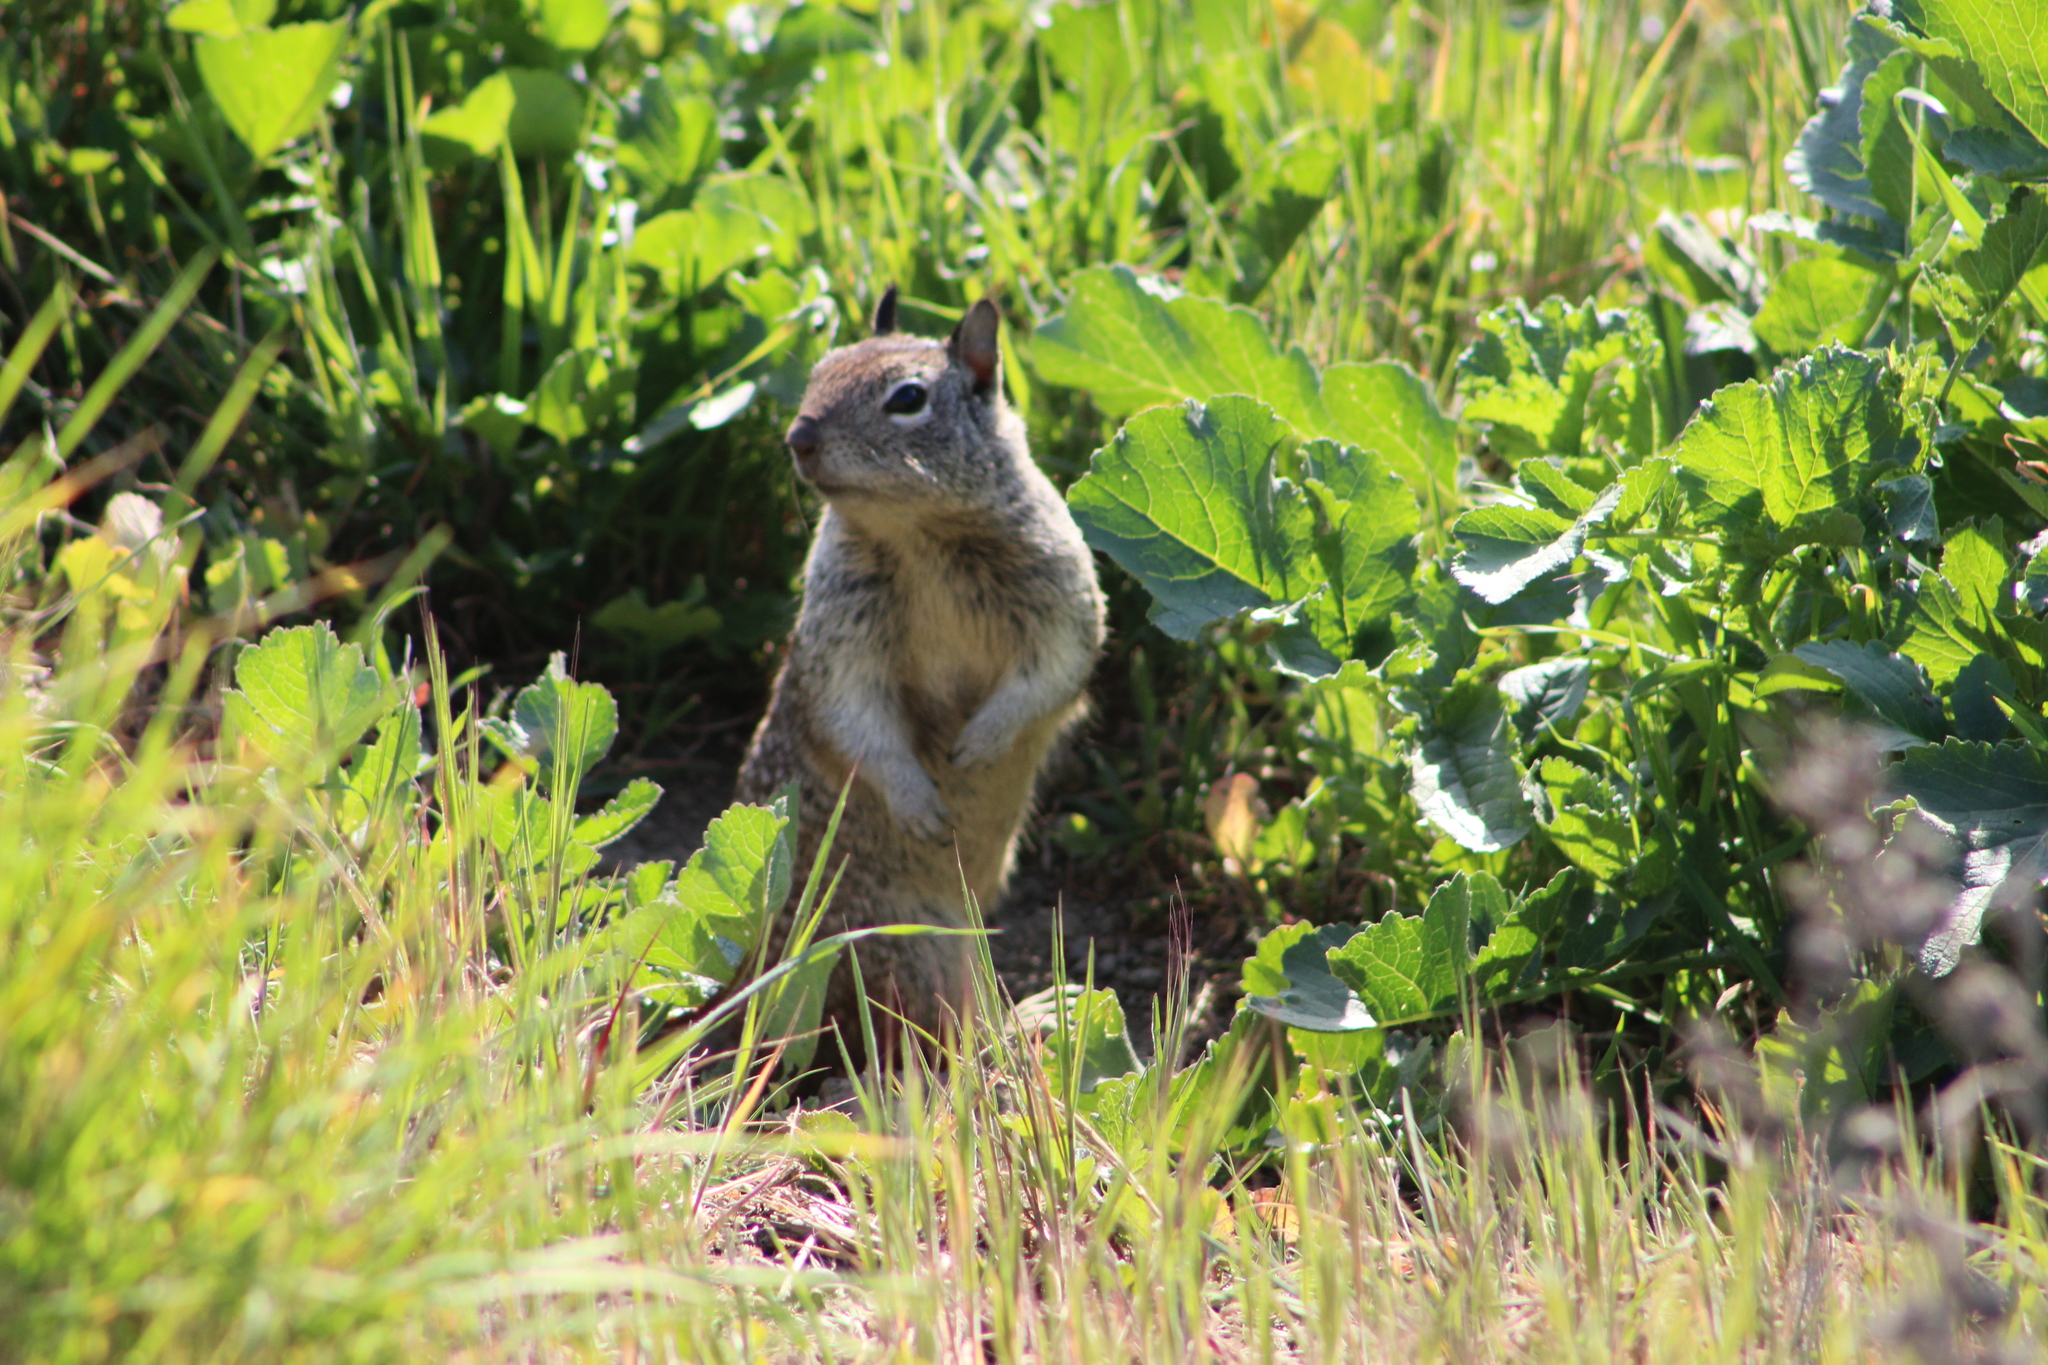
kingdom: Animalia
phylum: Chordata
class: Mammalia
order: Rodentia
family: Sciuridae
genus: Otospermophilus
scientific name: Otospermophilus beecheyi
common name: California ground squirrel
